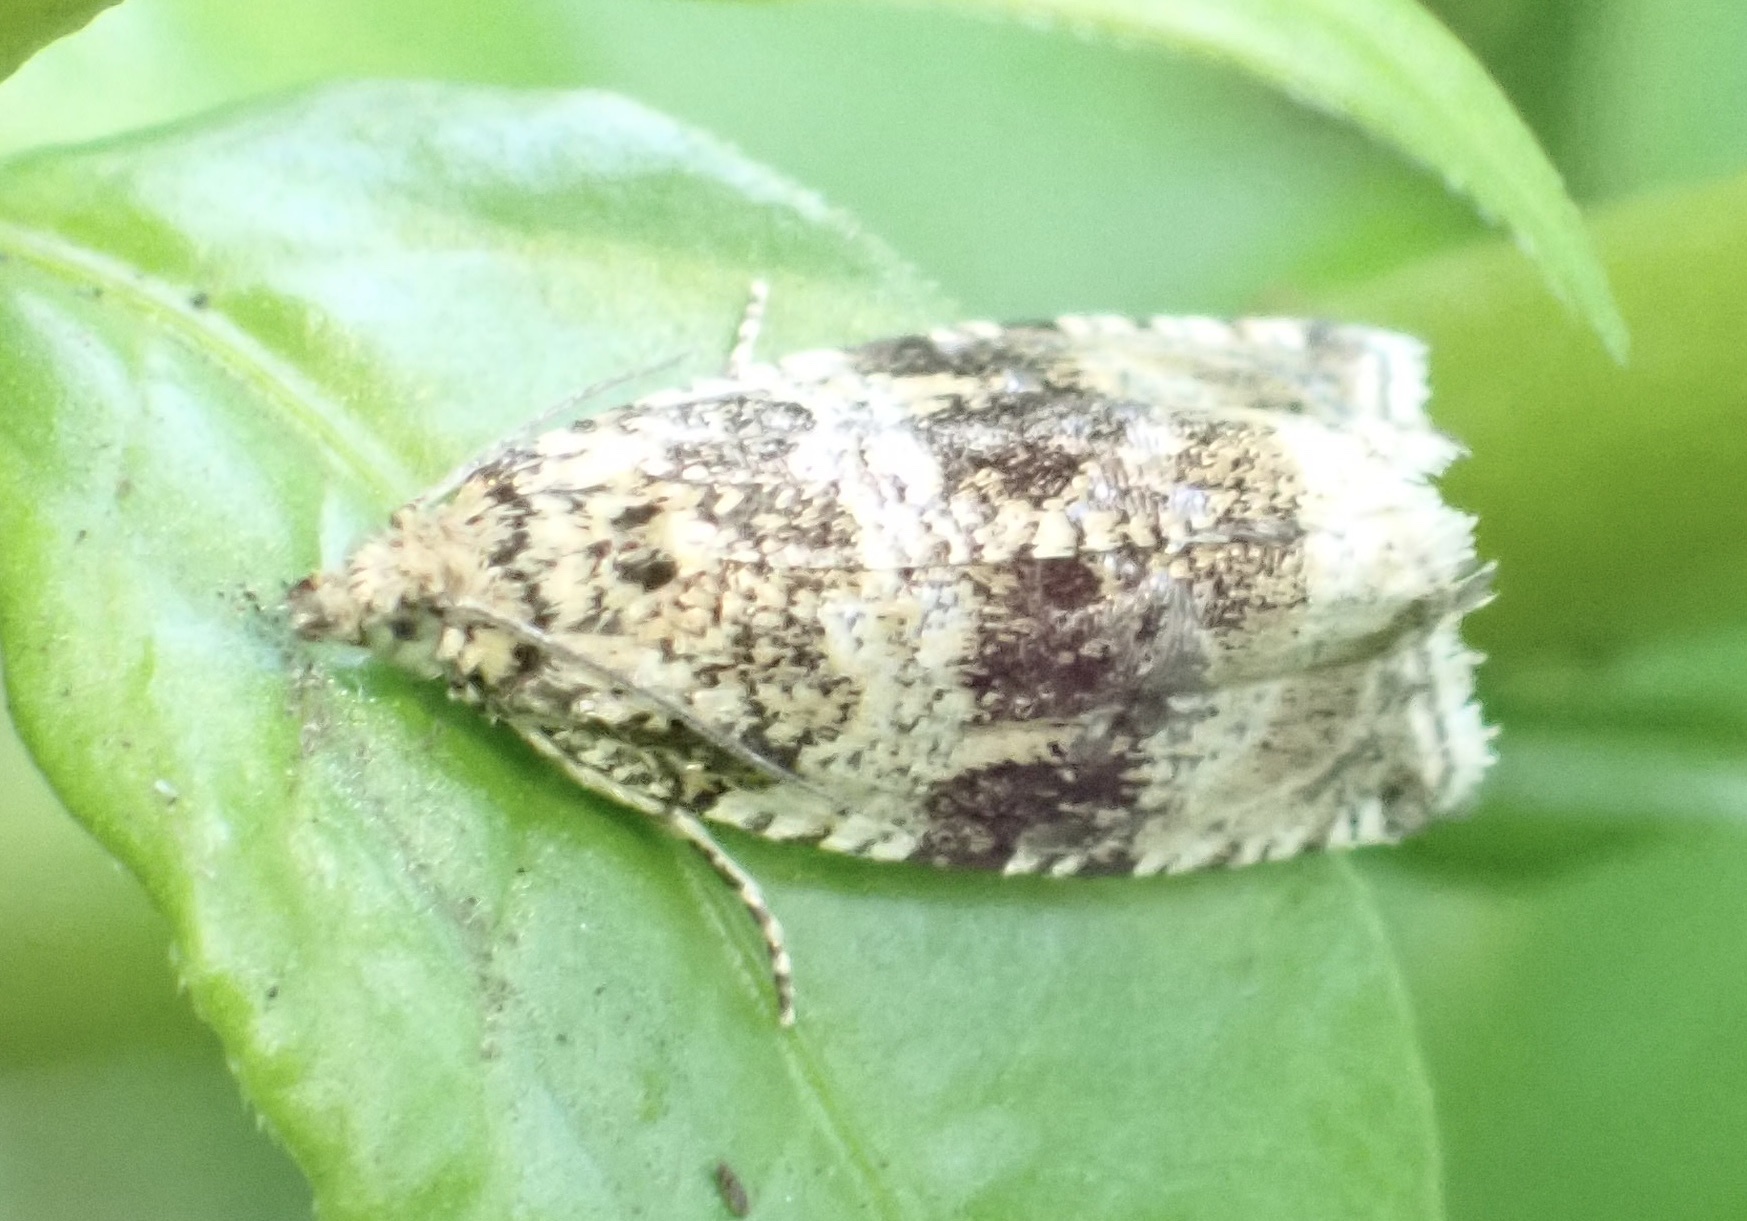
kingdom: Animalia
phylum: Arthropoda
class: Insecta
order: Lepidoptera
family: Tortricidae
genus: Syricoris
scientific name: Syricoris lacunana
